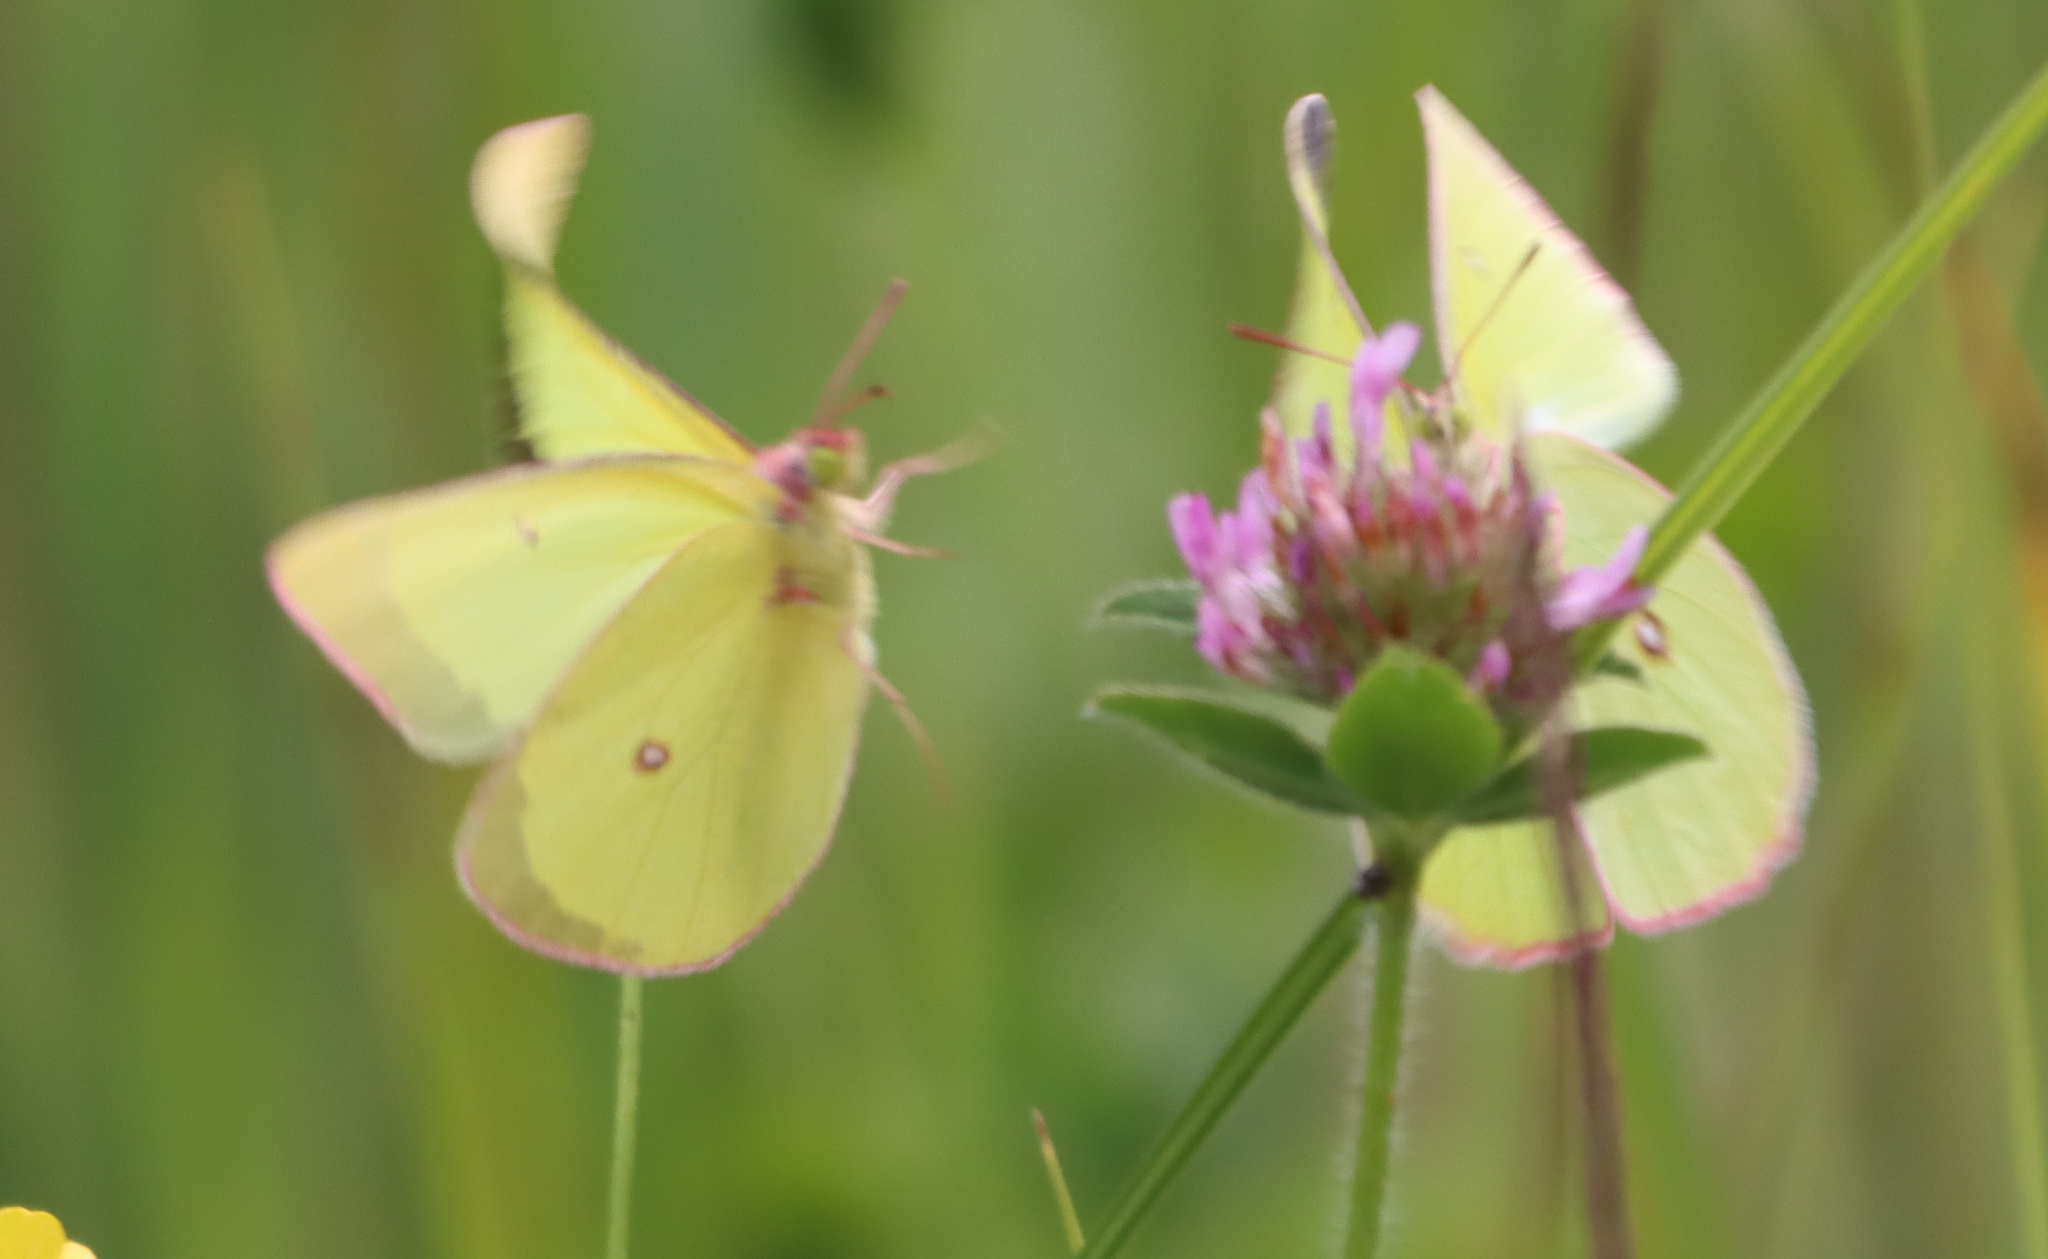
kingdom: Animalia
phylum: Arthropoda
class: Insecta
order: Lepidoptera
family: Pieridae
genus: Colias
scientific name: Colias interior
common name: Pink-edged sulphur
